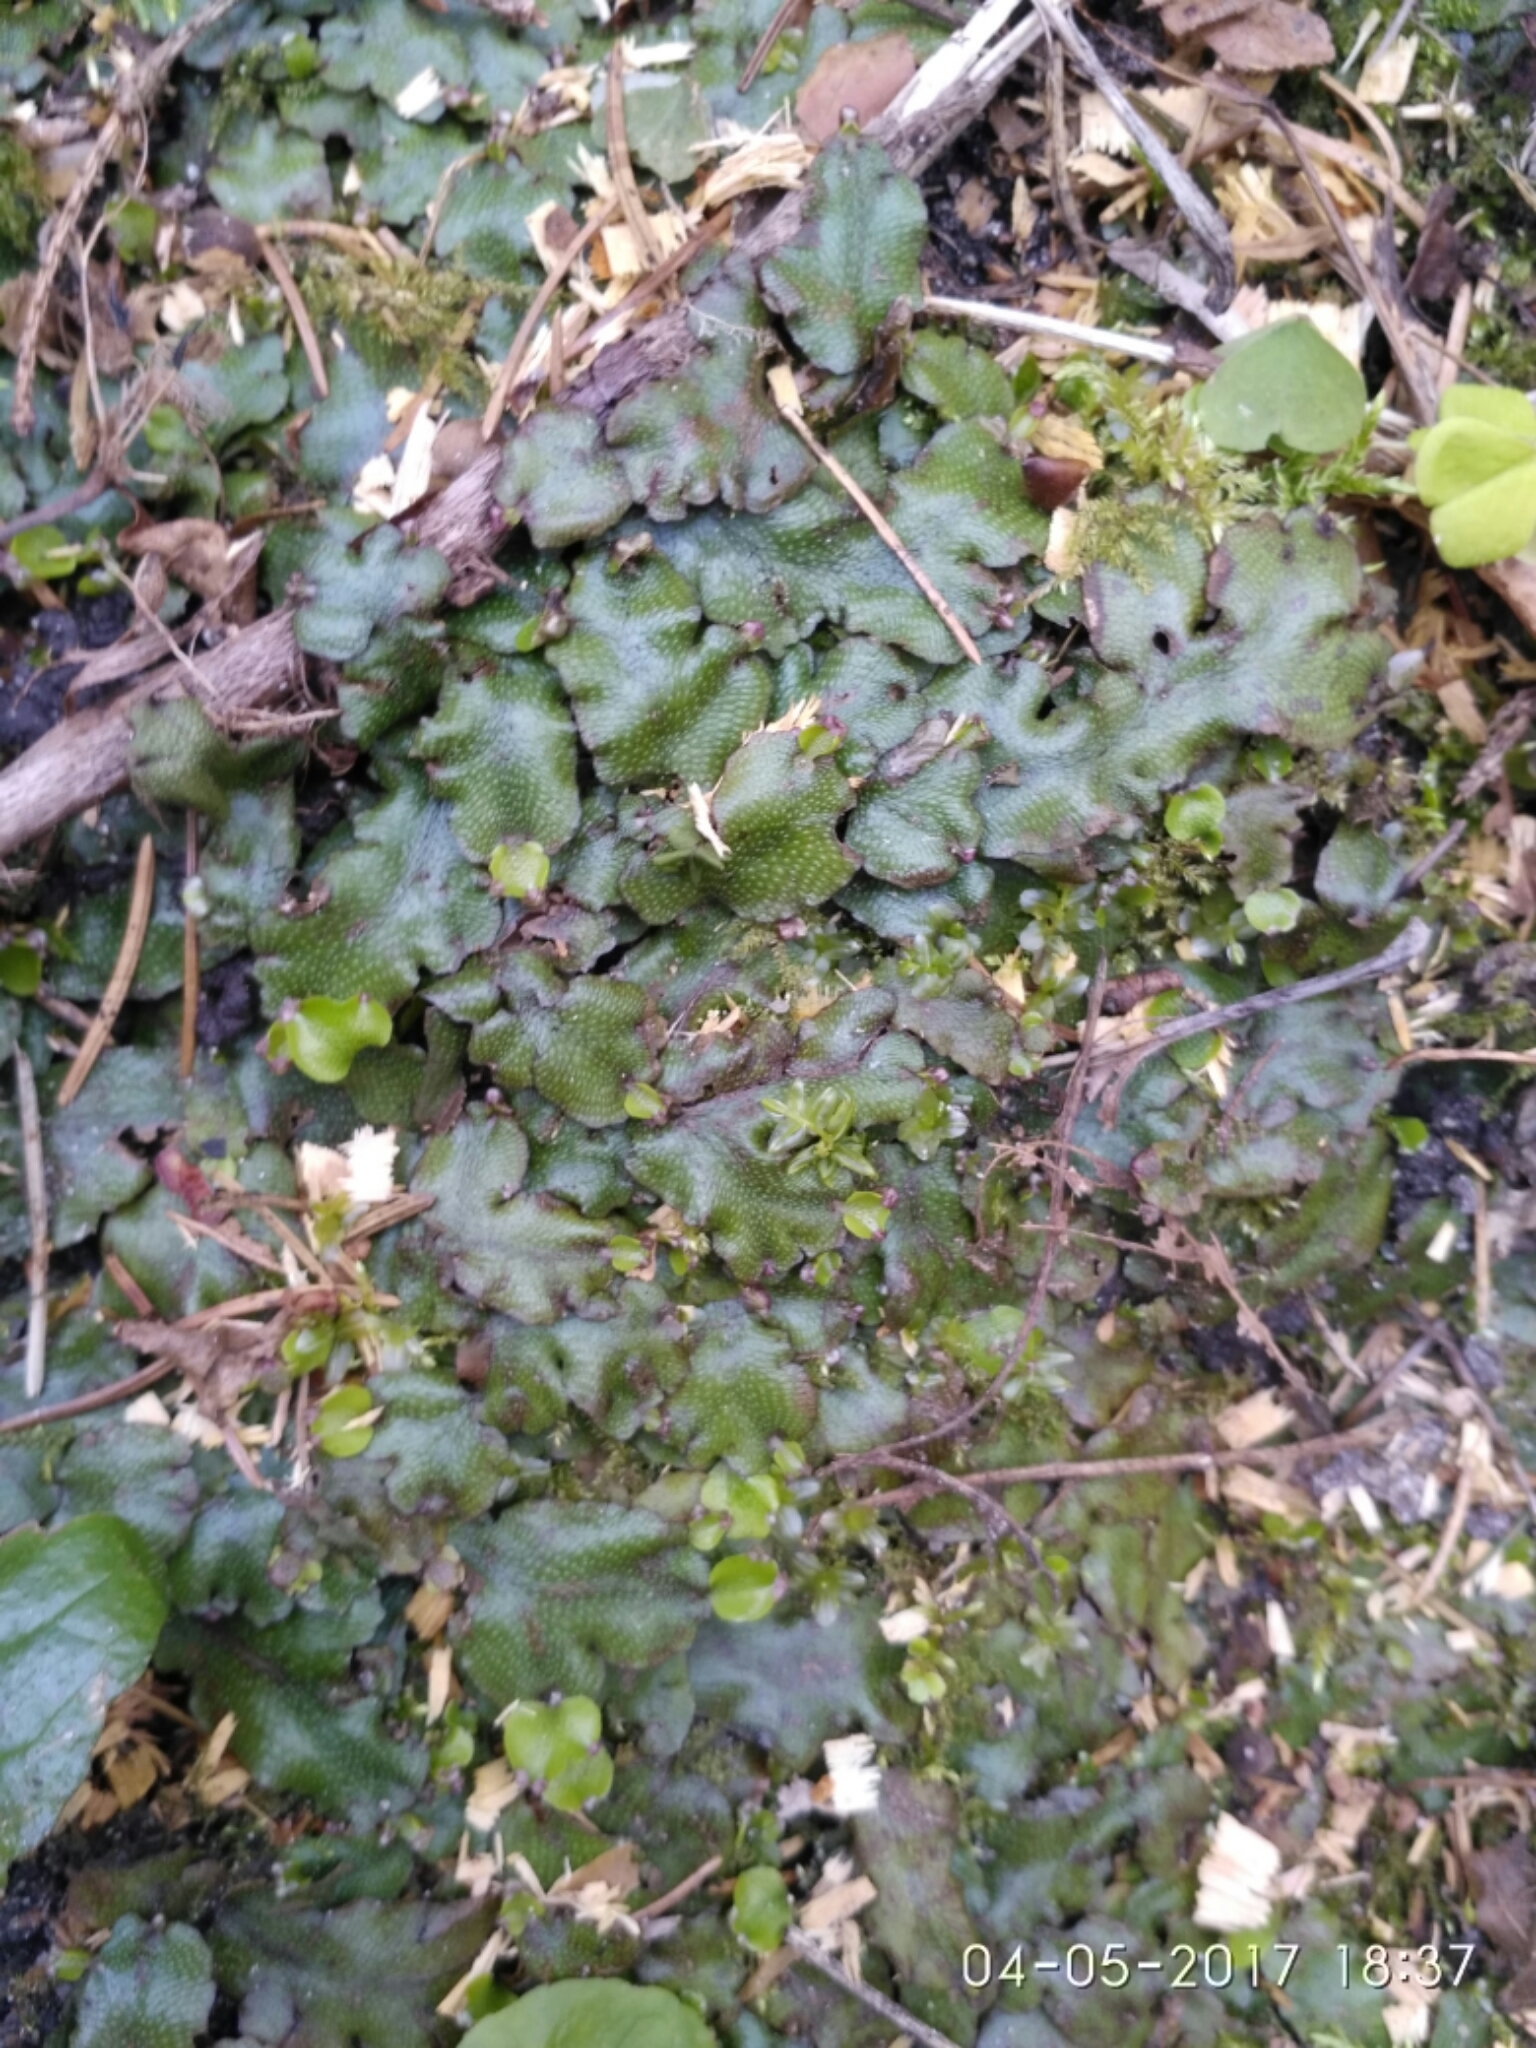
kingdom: Plantae
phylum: Marchantiophyta
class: Marchantiopsida
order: Marchantiales
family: Conocephalaceae
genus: Conocephalum
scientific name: Conocephalum conicum
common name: Great scented liverwort
